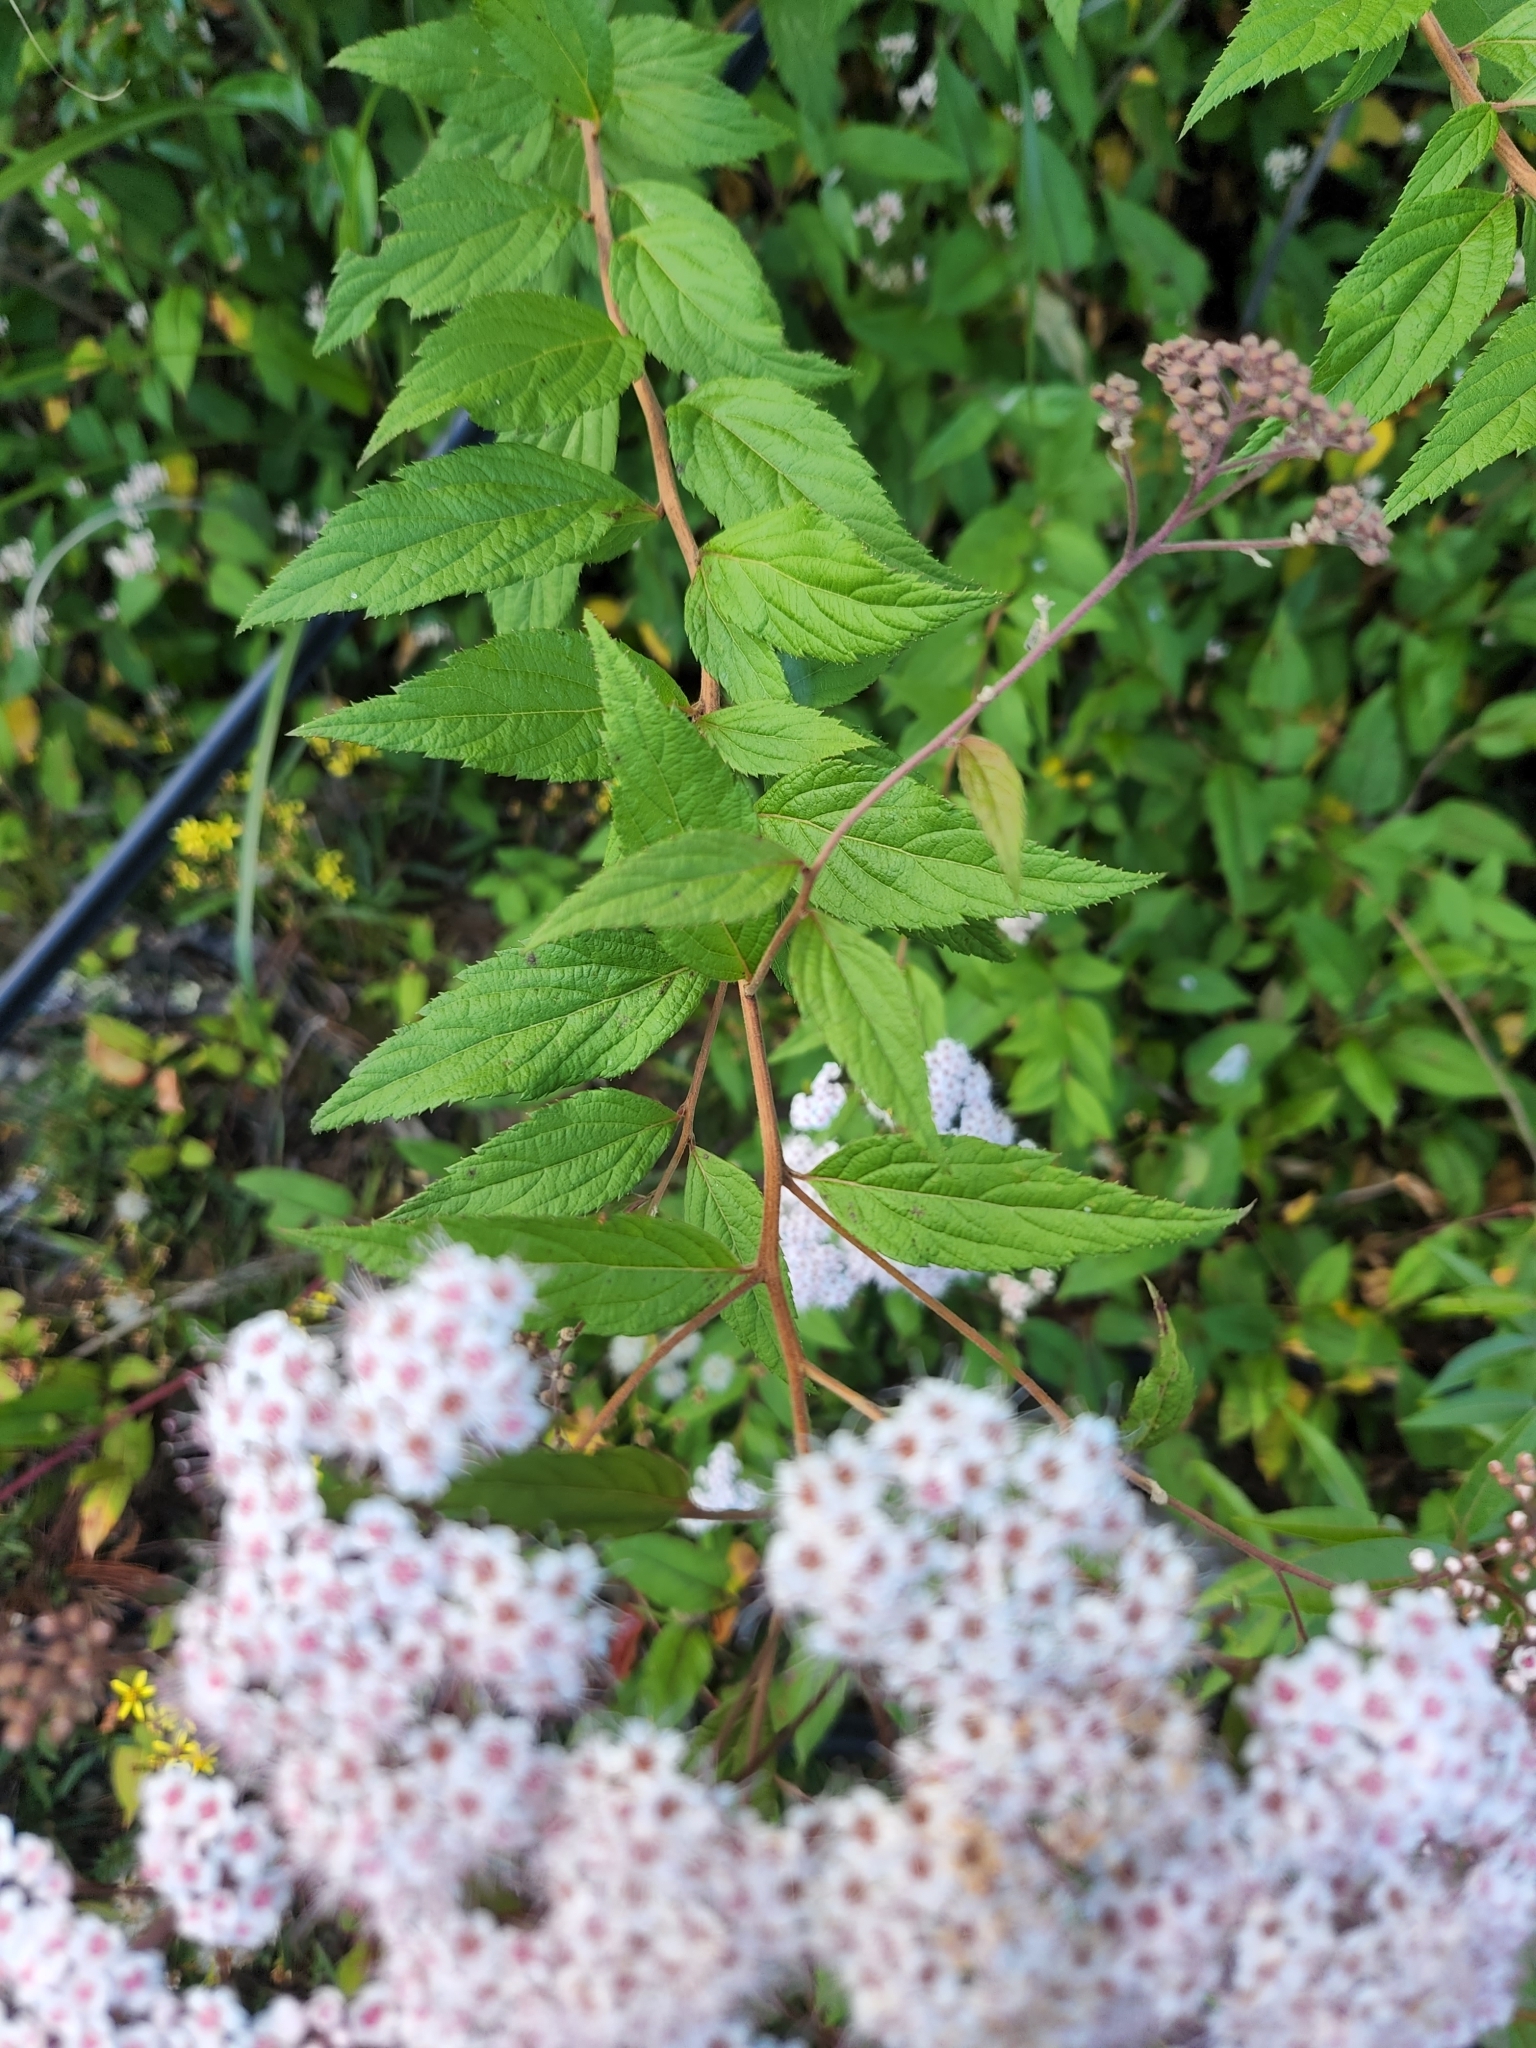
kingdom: Plantae
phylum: Tracheophyta
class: Magnoliopsida
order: Rosales
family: Rosaceae
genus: Spiraea
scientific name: Spiraea japonica
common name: Japanese spiraea
